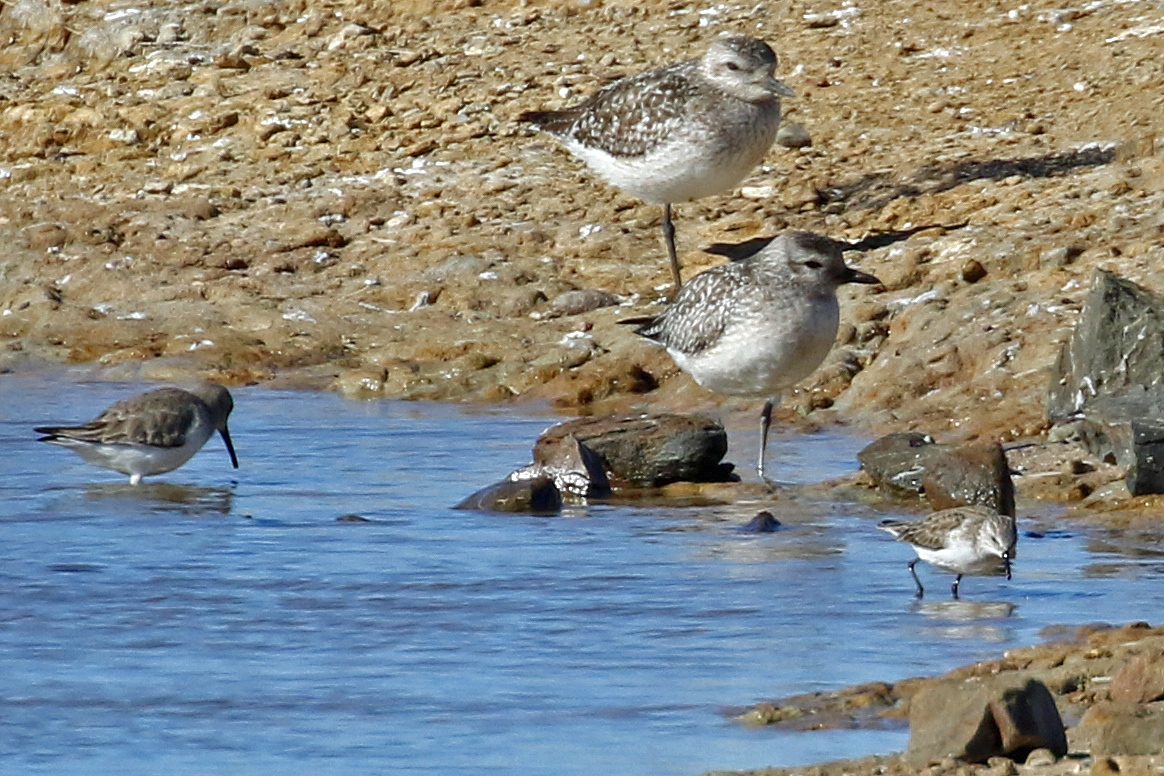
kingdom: Animalia
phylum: Chordata
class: Aves
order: Charadriiformes
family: Scolopacidae
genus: Calidris
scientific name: Calidris minuta
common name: Little stint
